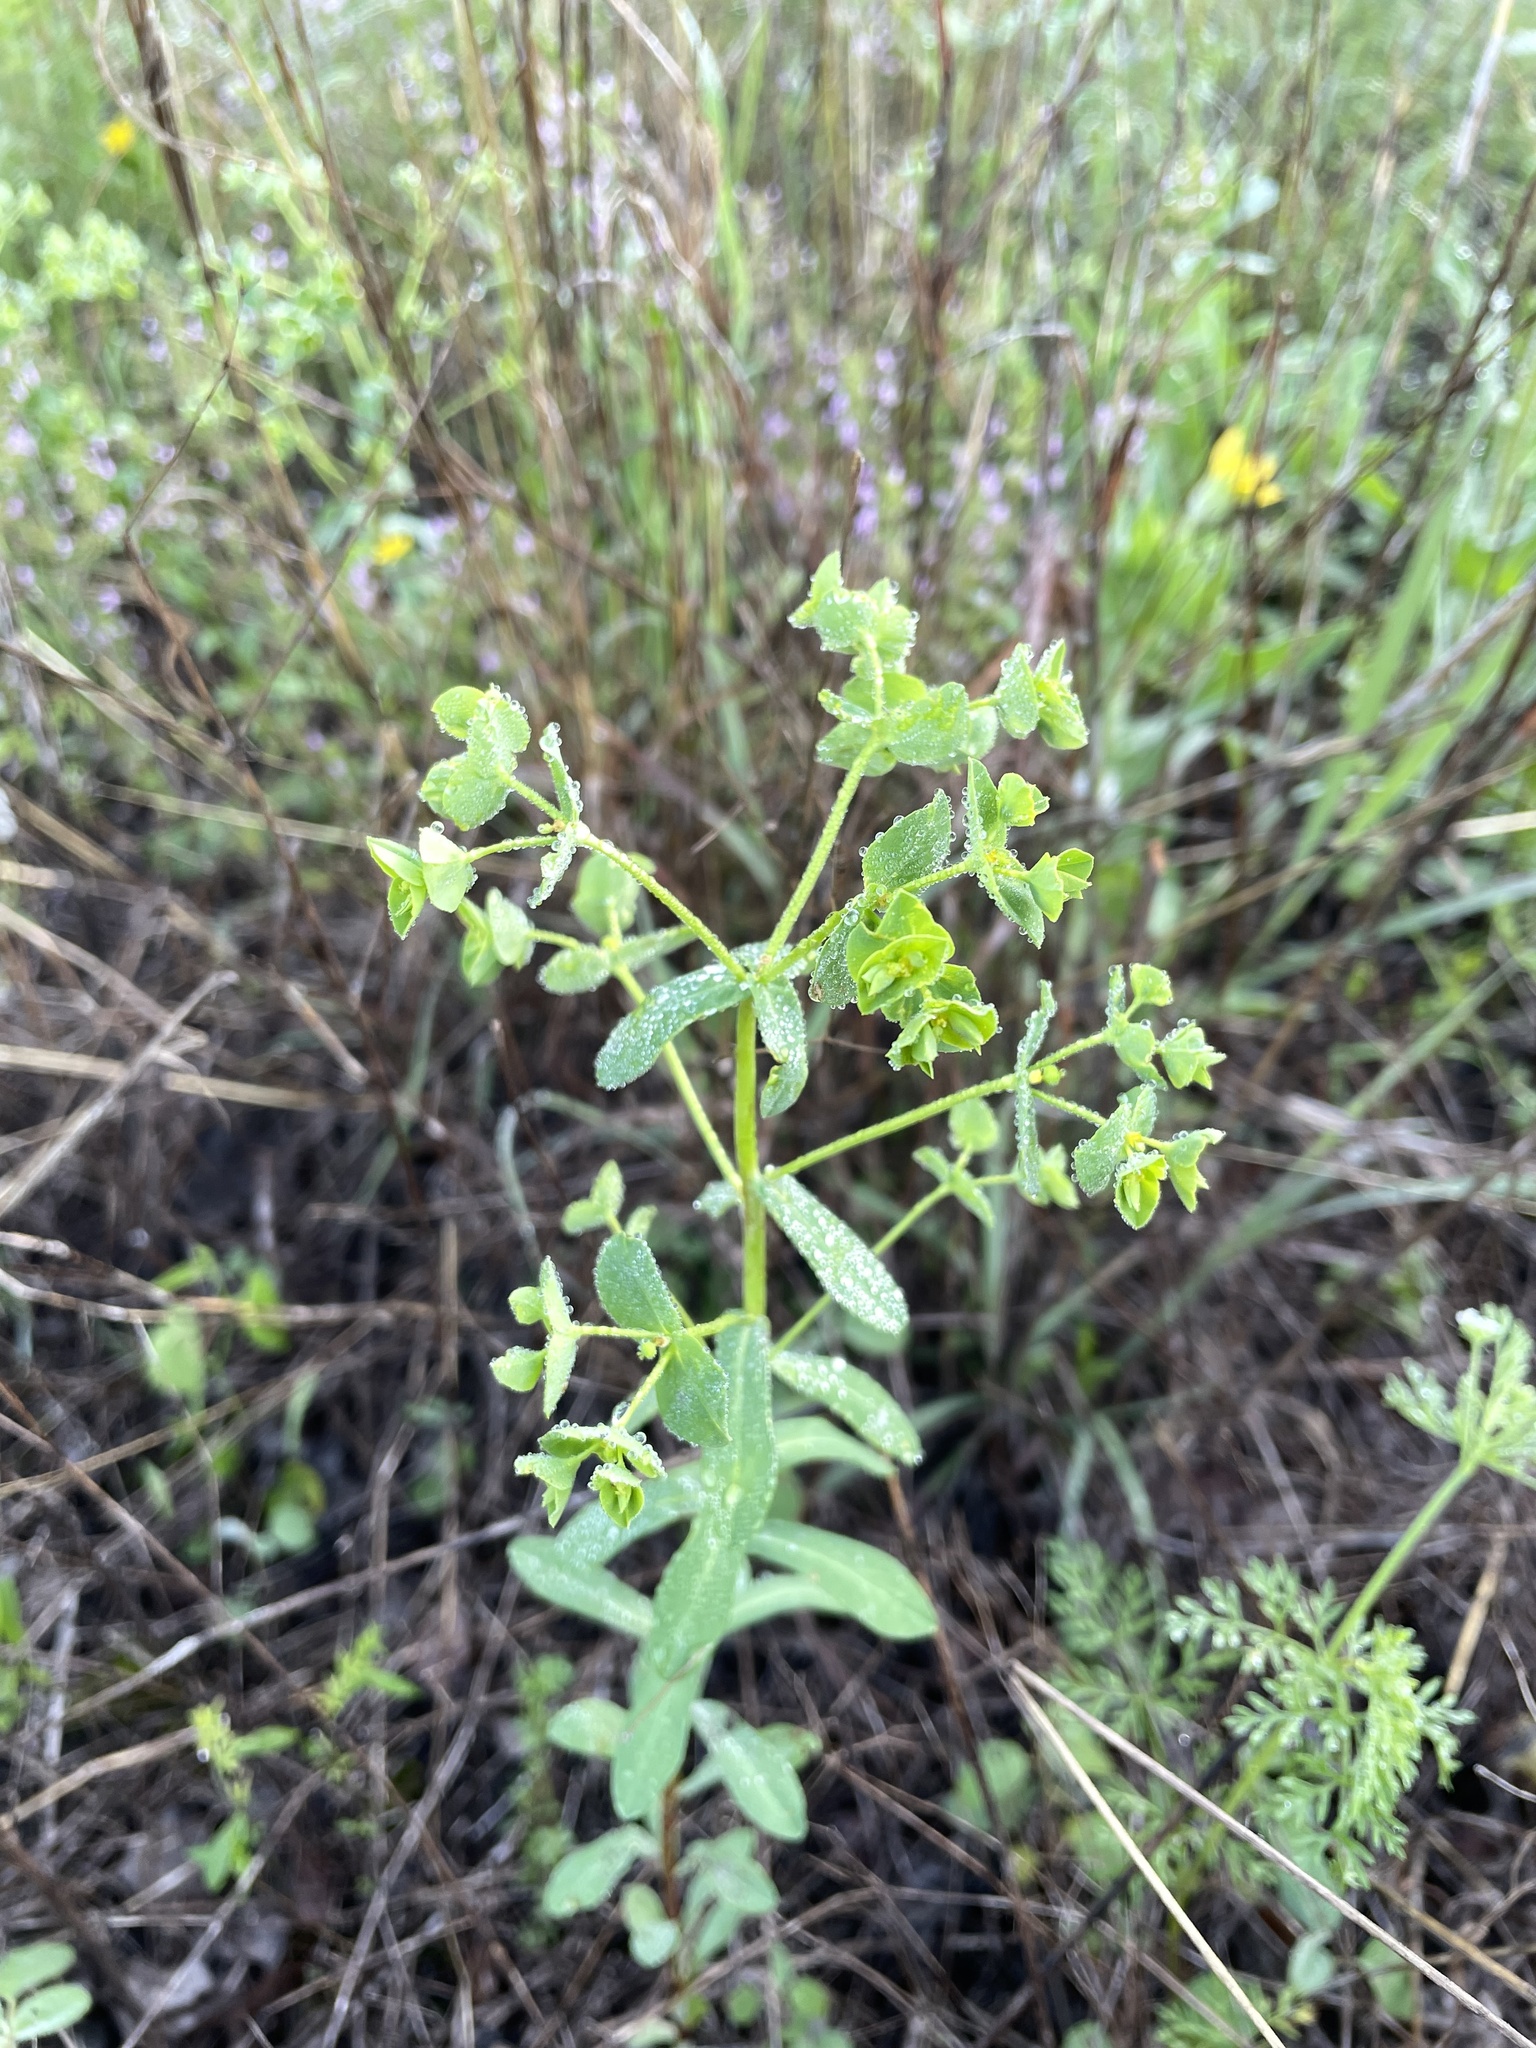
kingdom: Plantae
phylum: Tracheophyta
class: Magnoliopsida
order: Malpighiales
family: Euphorbiaceae
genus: Euphorbia
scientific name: Euphorbia spathulata
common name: Blunt spurge
